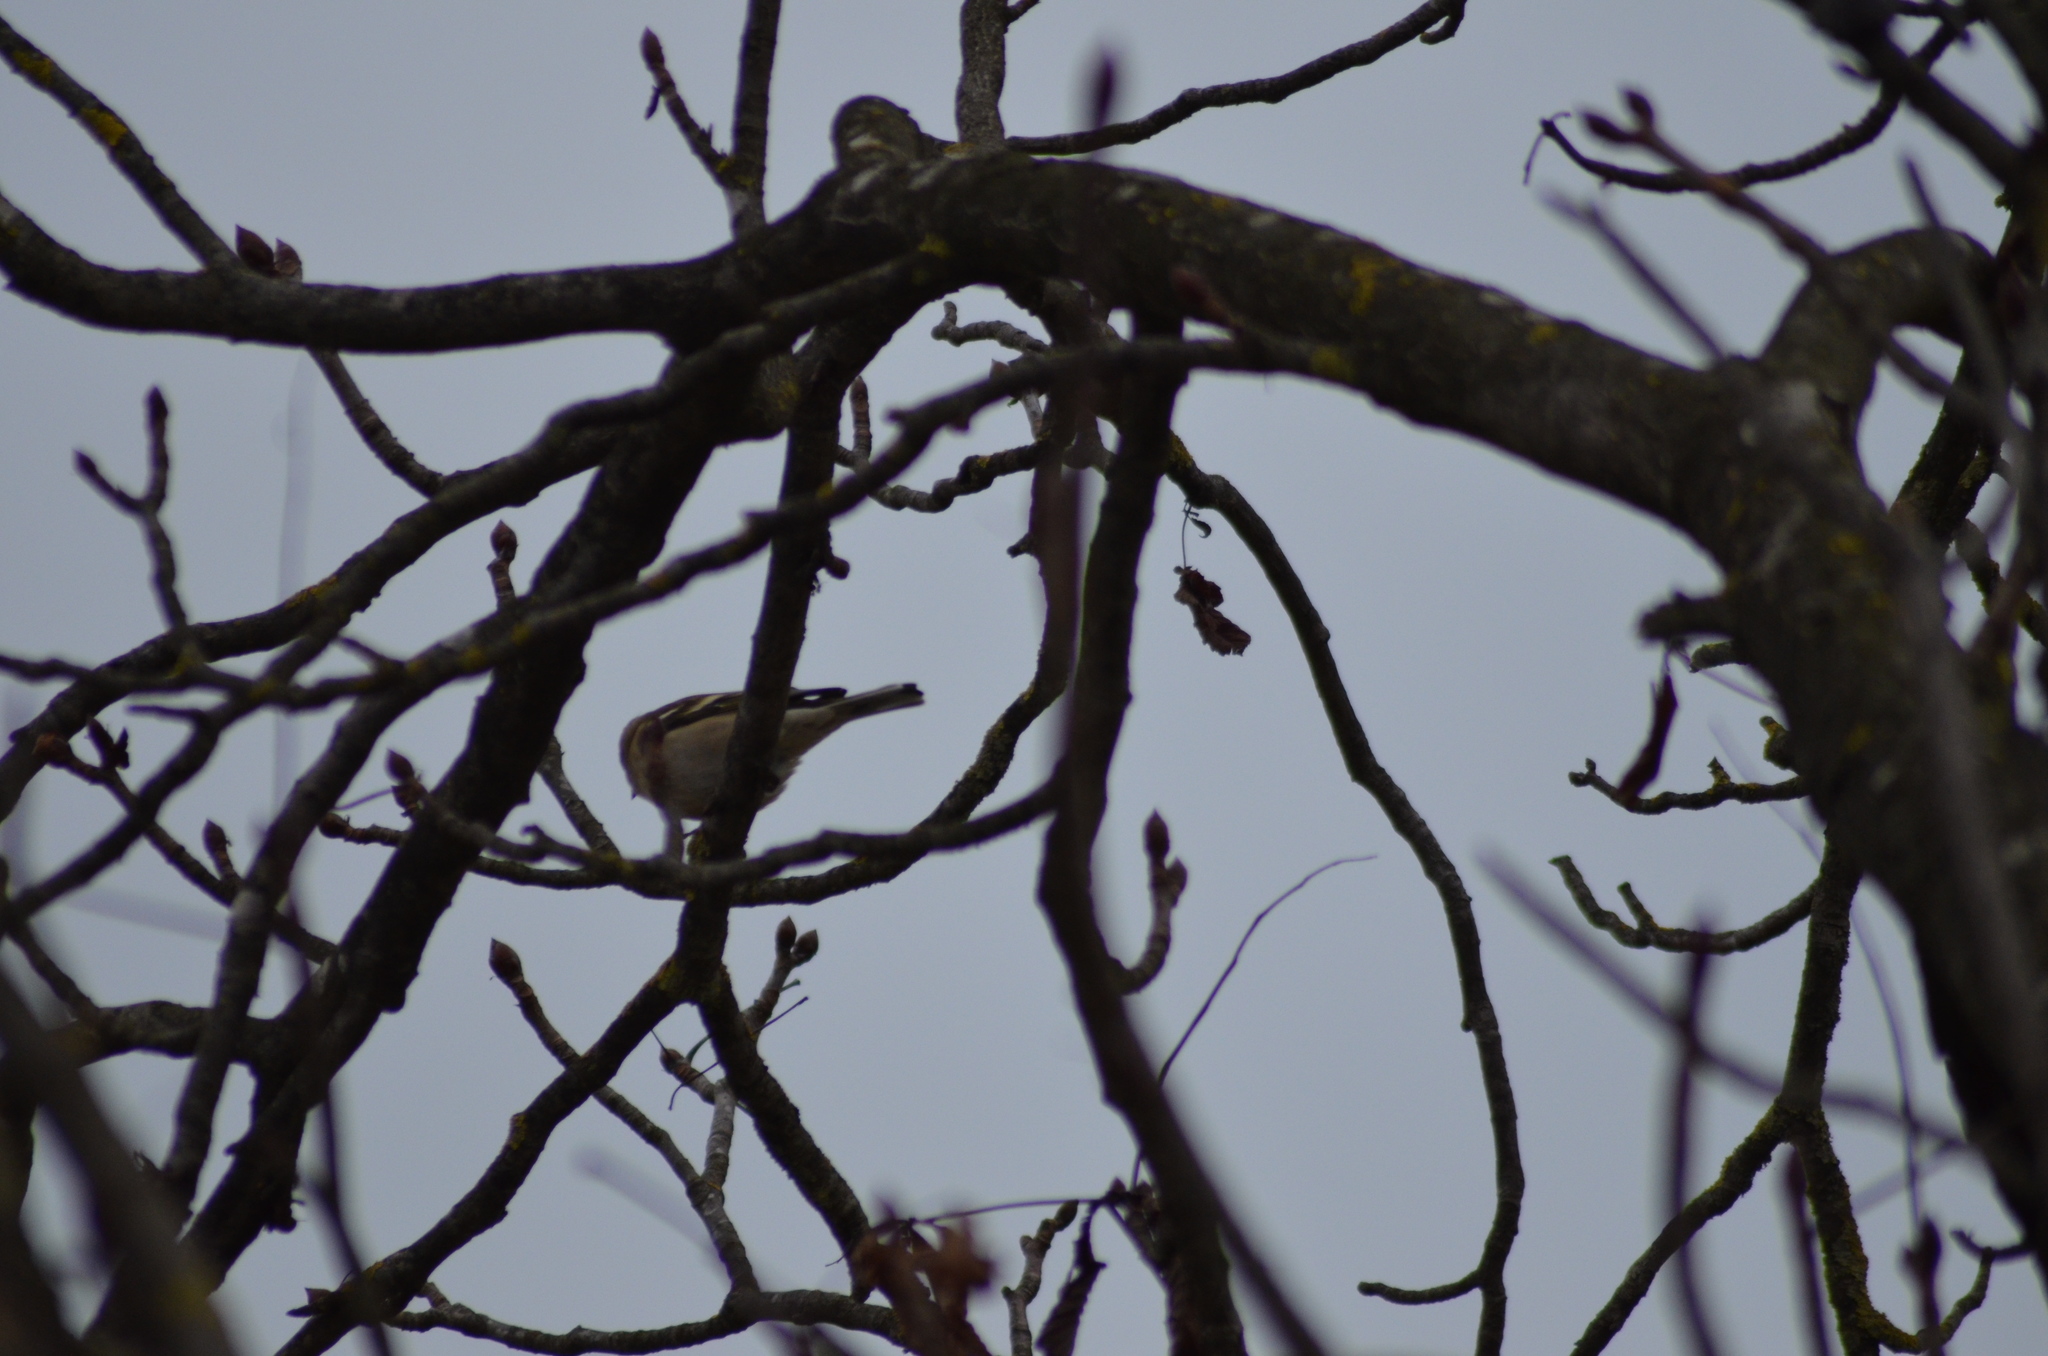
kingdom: Animalia
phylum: Chordata
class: Aves
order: Passeriformes
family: Fringillidae
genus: Fringilla
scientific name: Fringilla coelebs
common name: Common chaffinch
